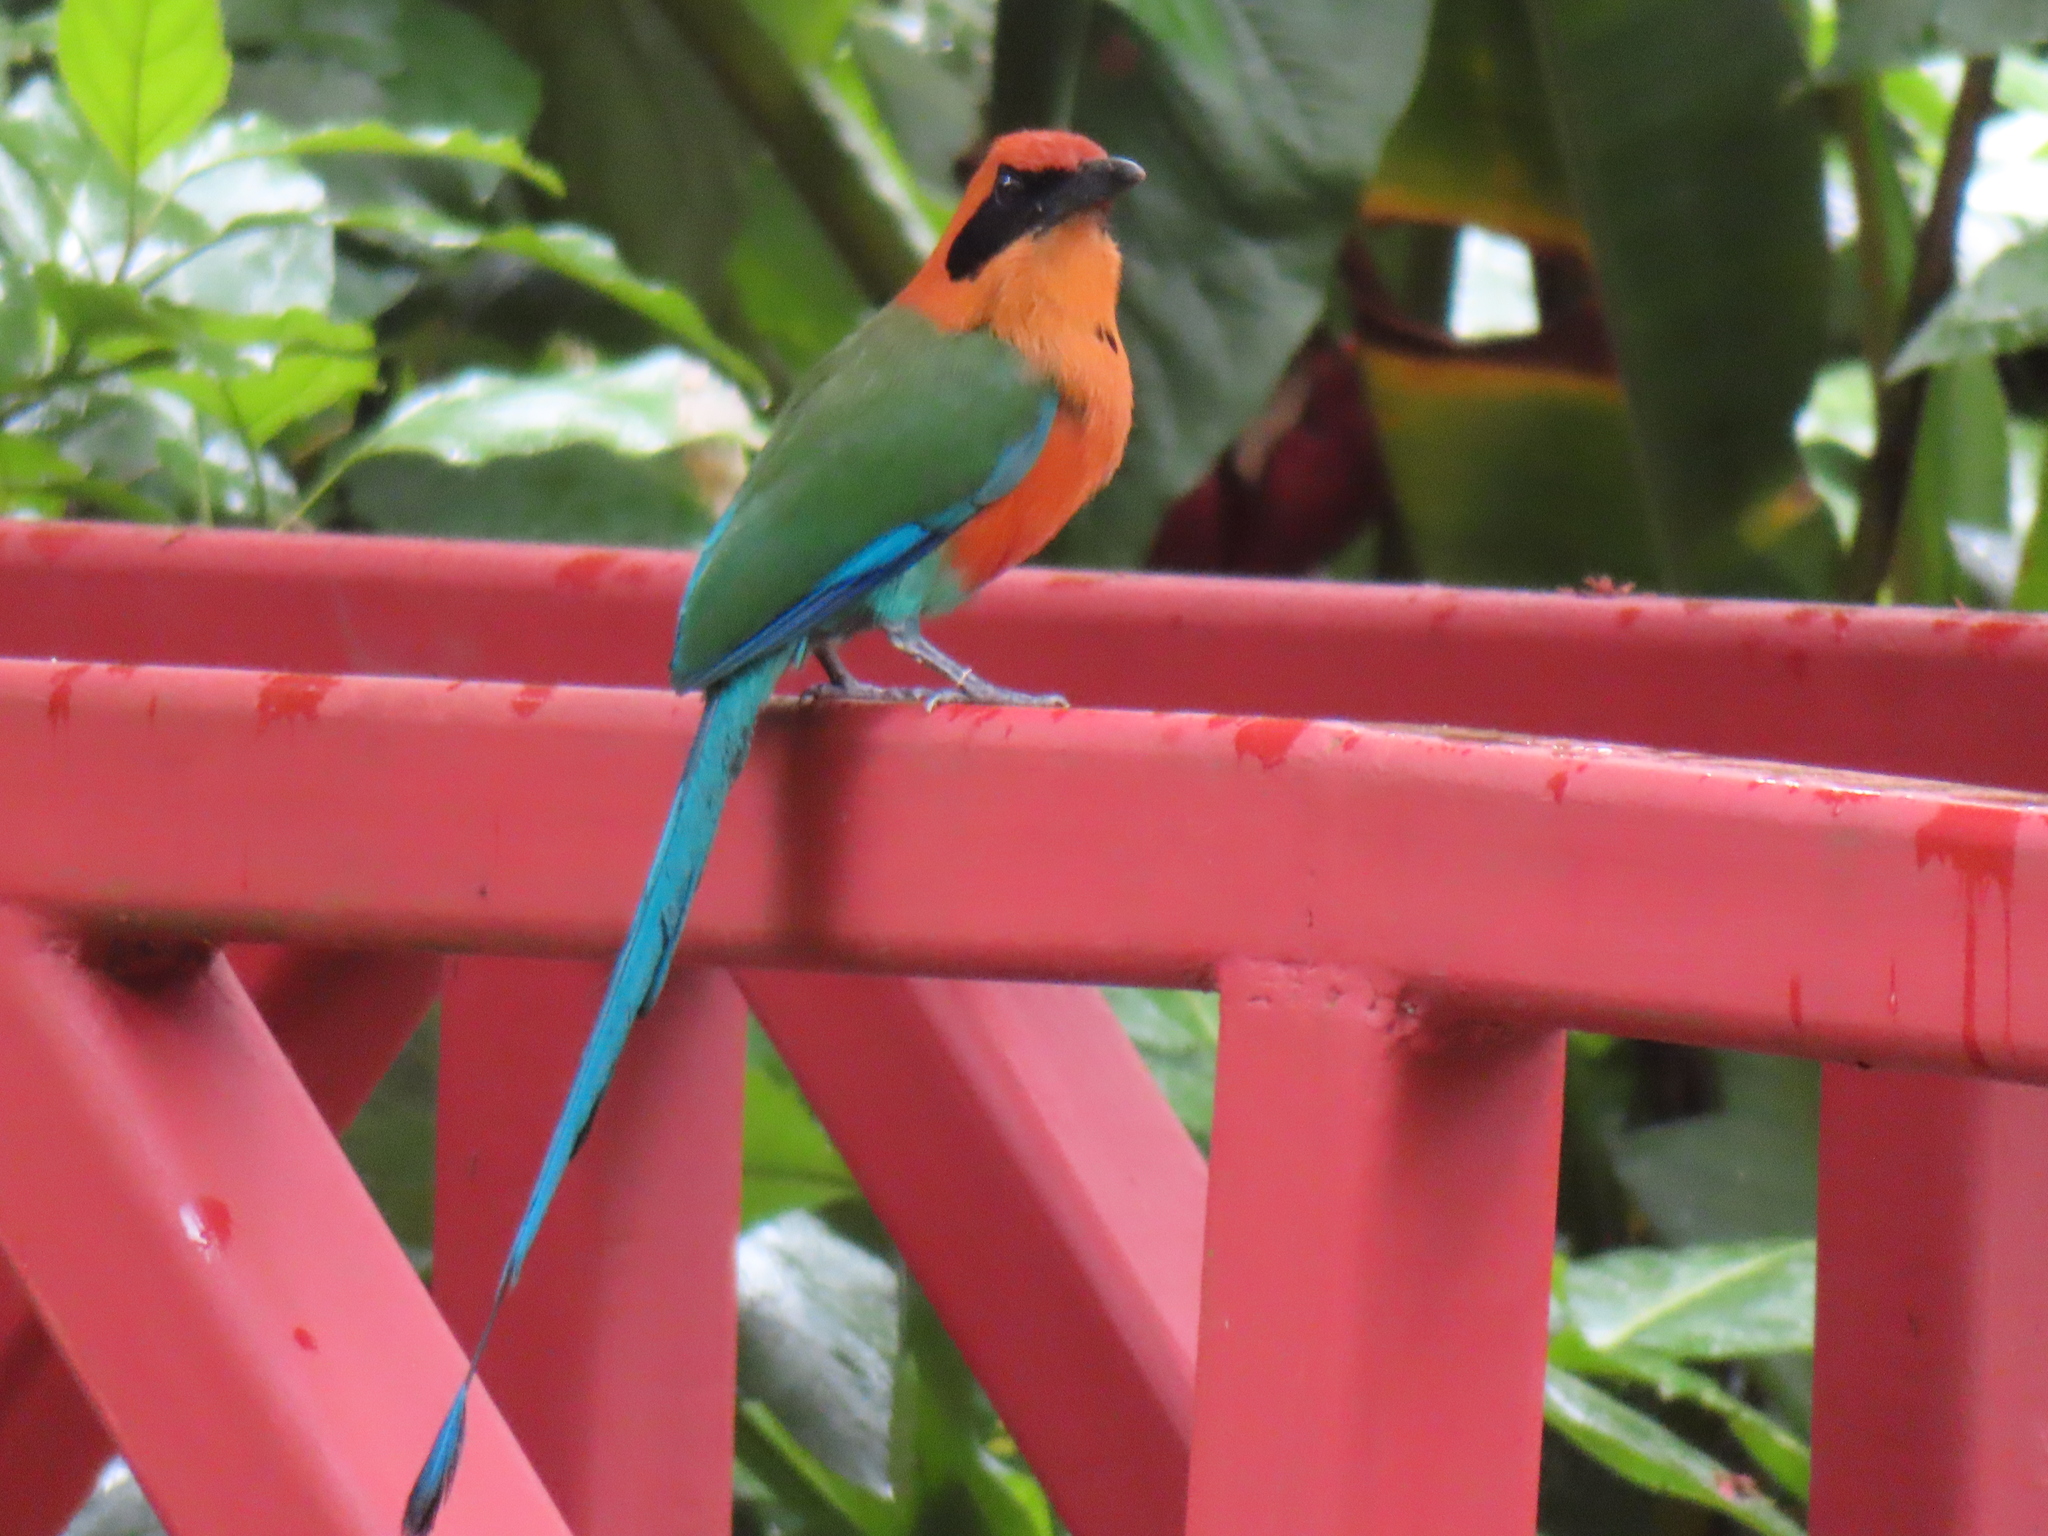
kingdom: Animalia
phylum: Chordata
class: Aves
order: Coraciiformes
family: Momotidae
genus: Baryphthengus
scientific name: Baryphthengus martii
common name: Rufous motmot
